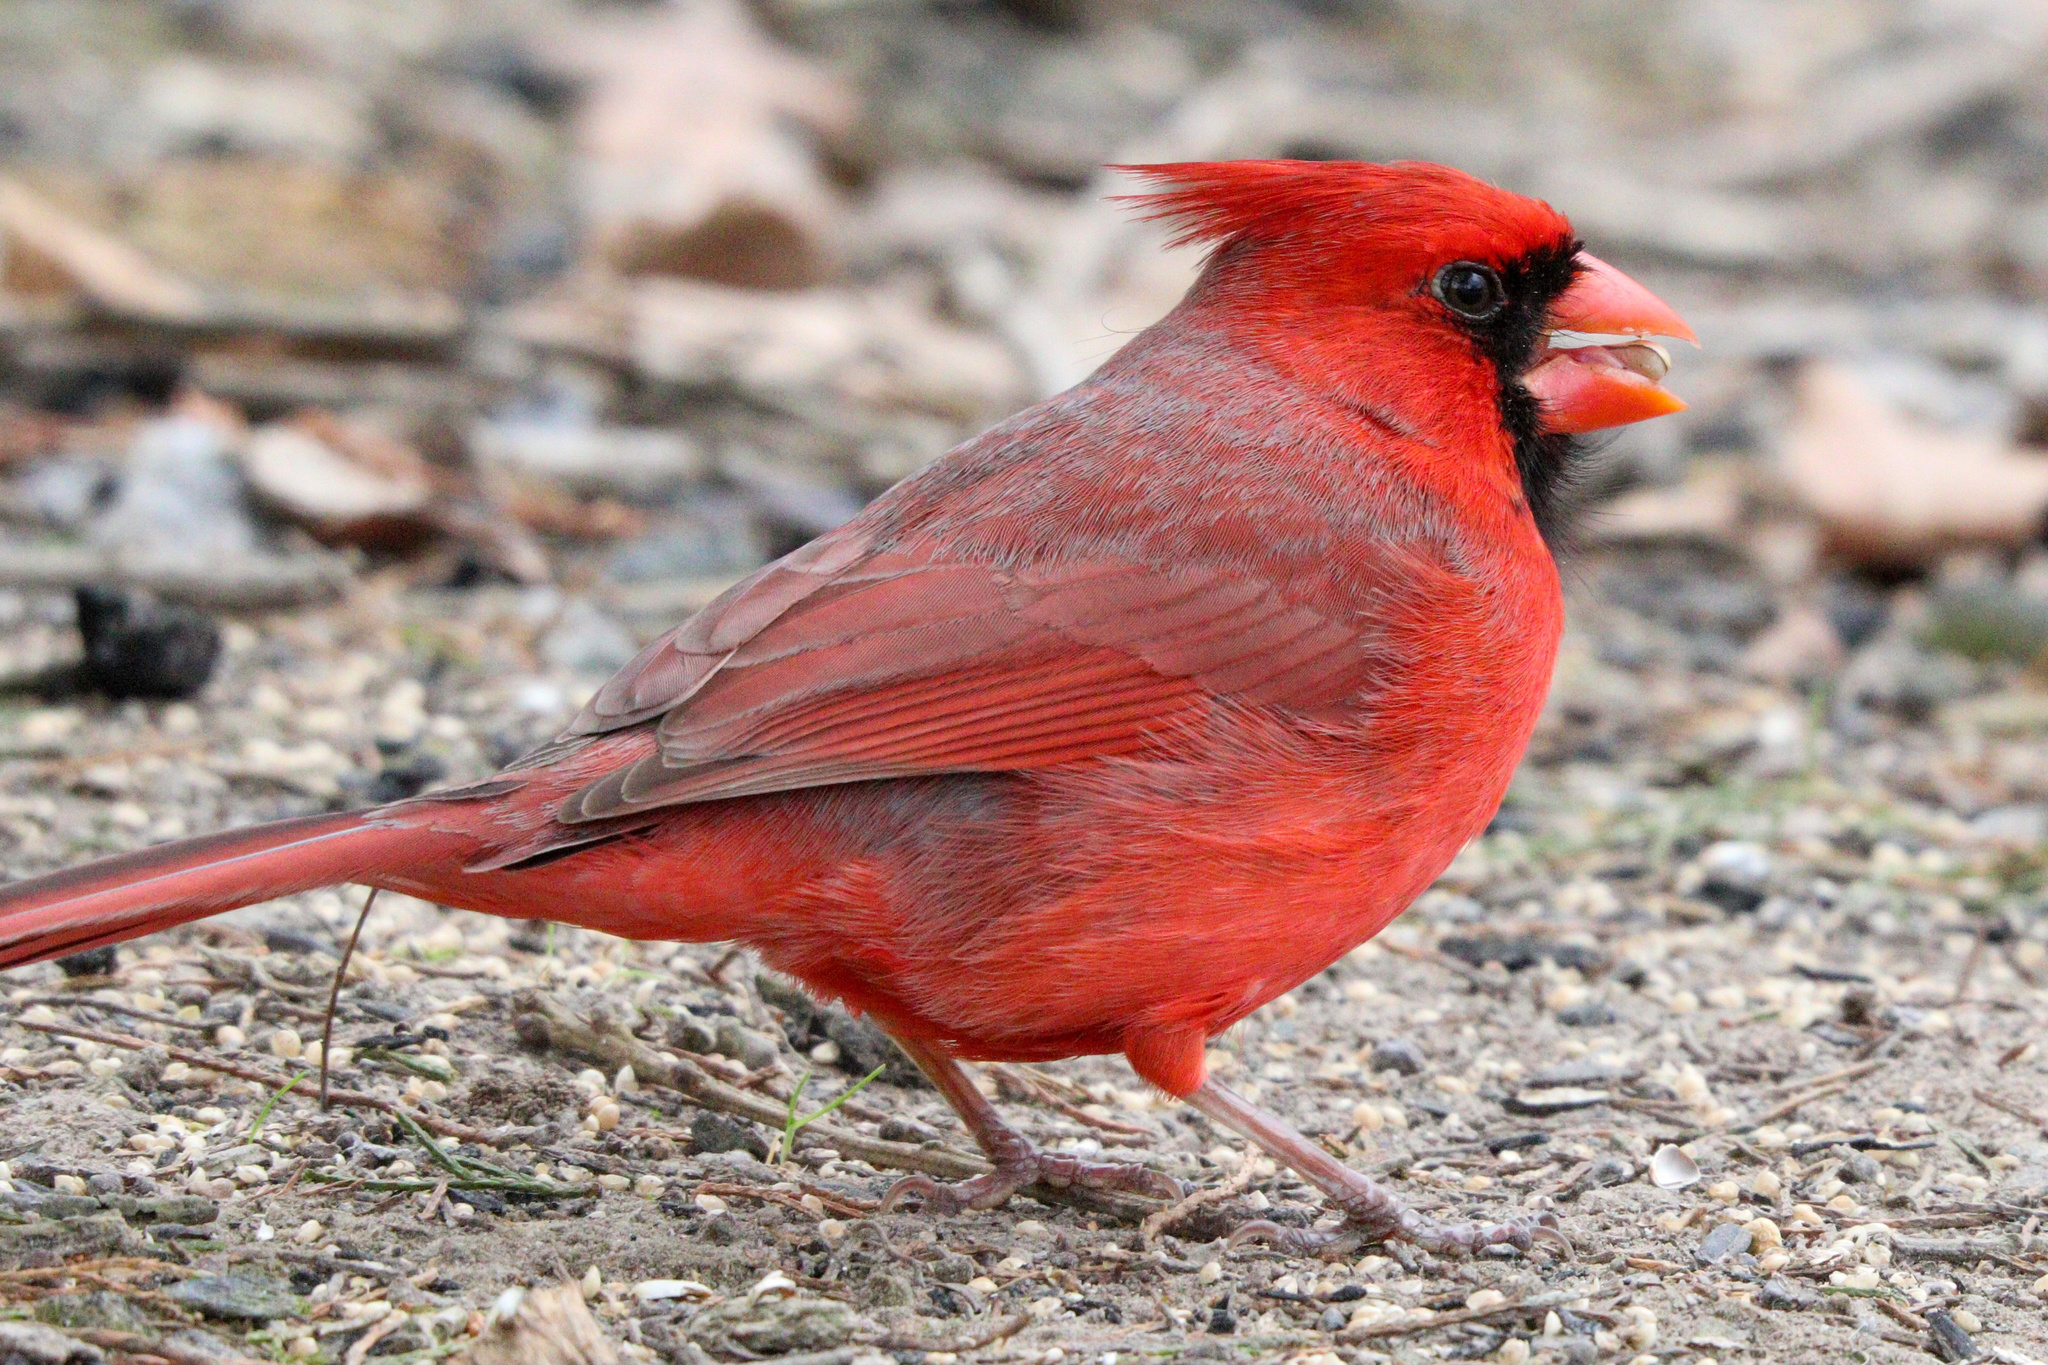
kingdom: Animalia
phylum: Chordata
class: Aves
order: Passeriformes
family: Cardinalidae
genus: Cardinalis
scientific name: Cardinalis cardinalis
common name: Northern cardinal
